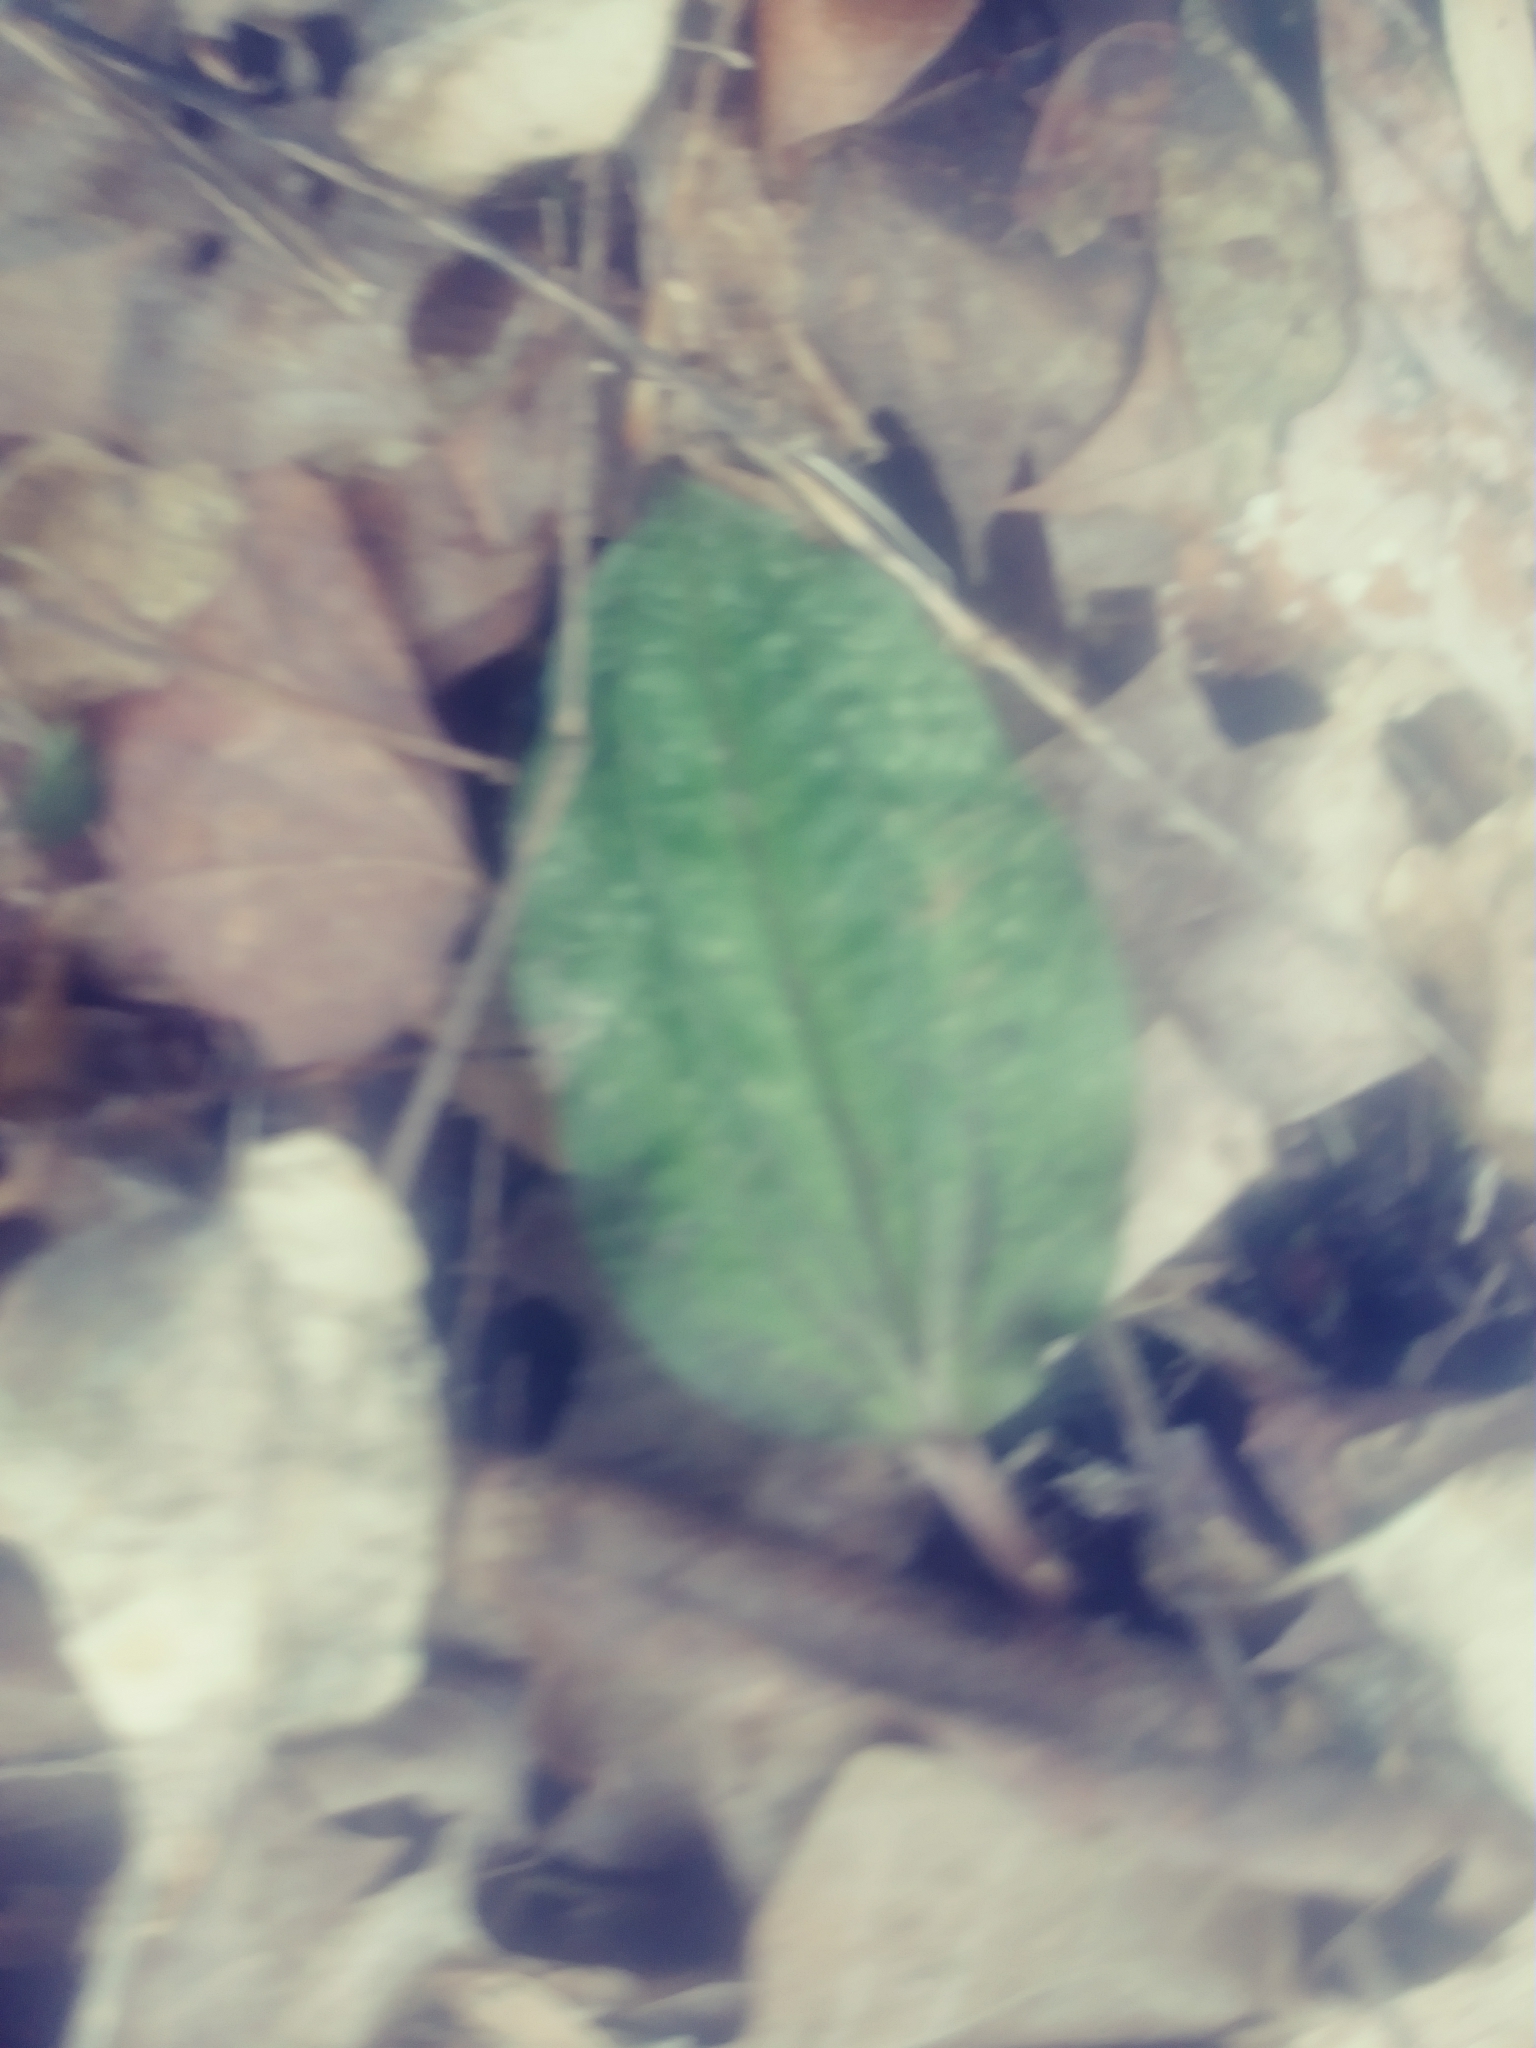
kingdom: Plantae
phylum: Tracheophyta
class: Liliopsida
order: Asparagales
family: Orchidaceae
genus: Tipularia
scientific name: Tipularia discolor
